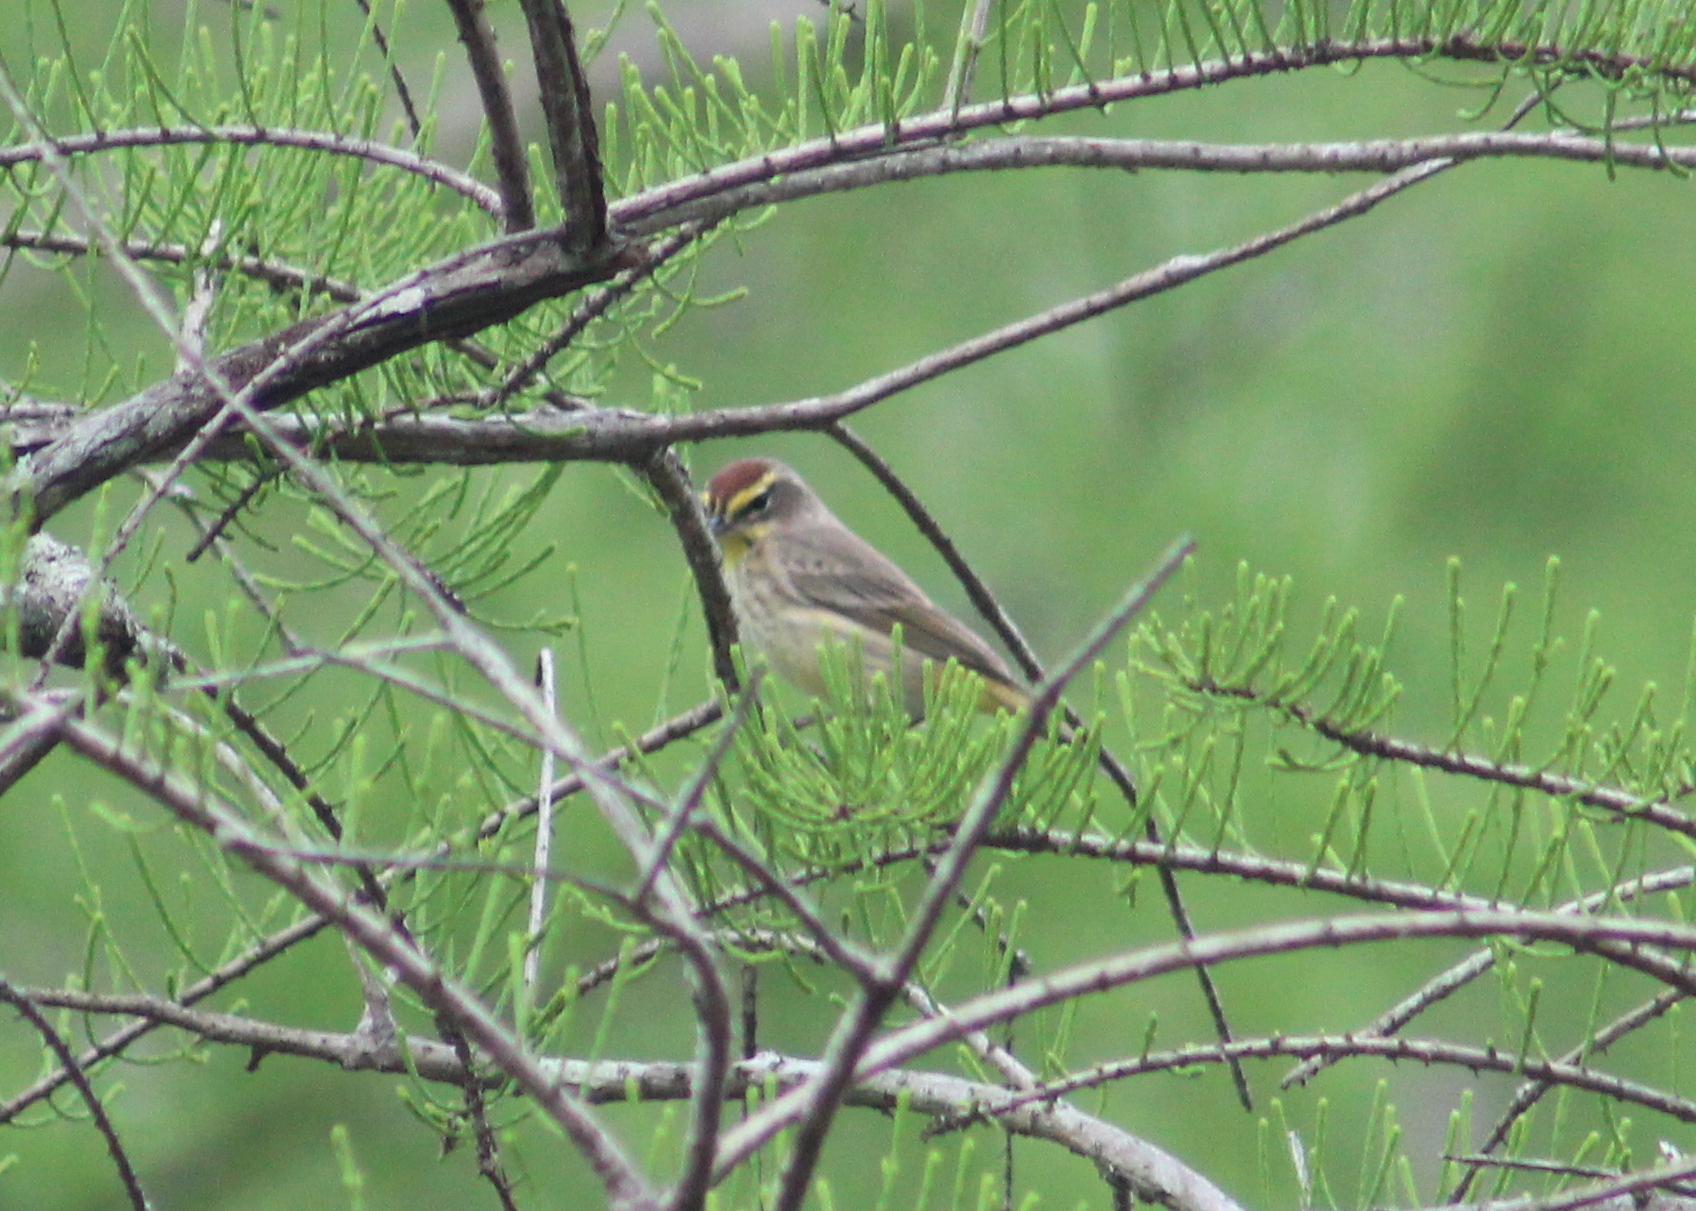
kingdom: Animalia
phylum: Chordata
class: Aves
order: Passeriformes
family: Parulidae
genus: Setophaga
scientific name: Setophaga palmarum
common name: Palm warbler
